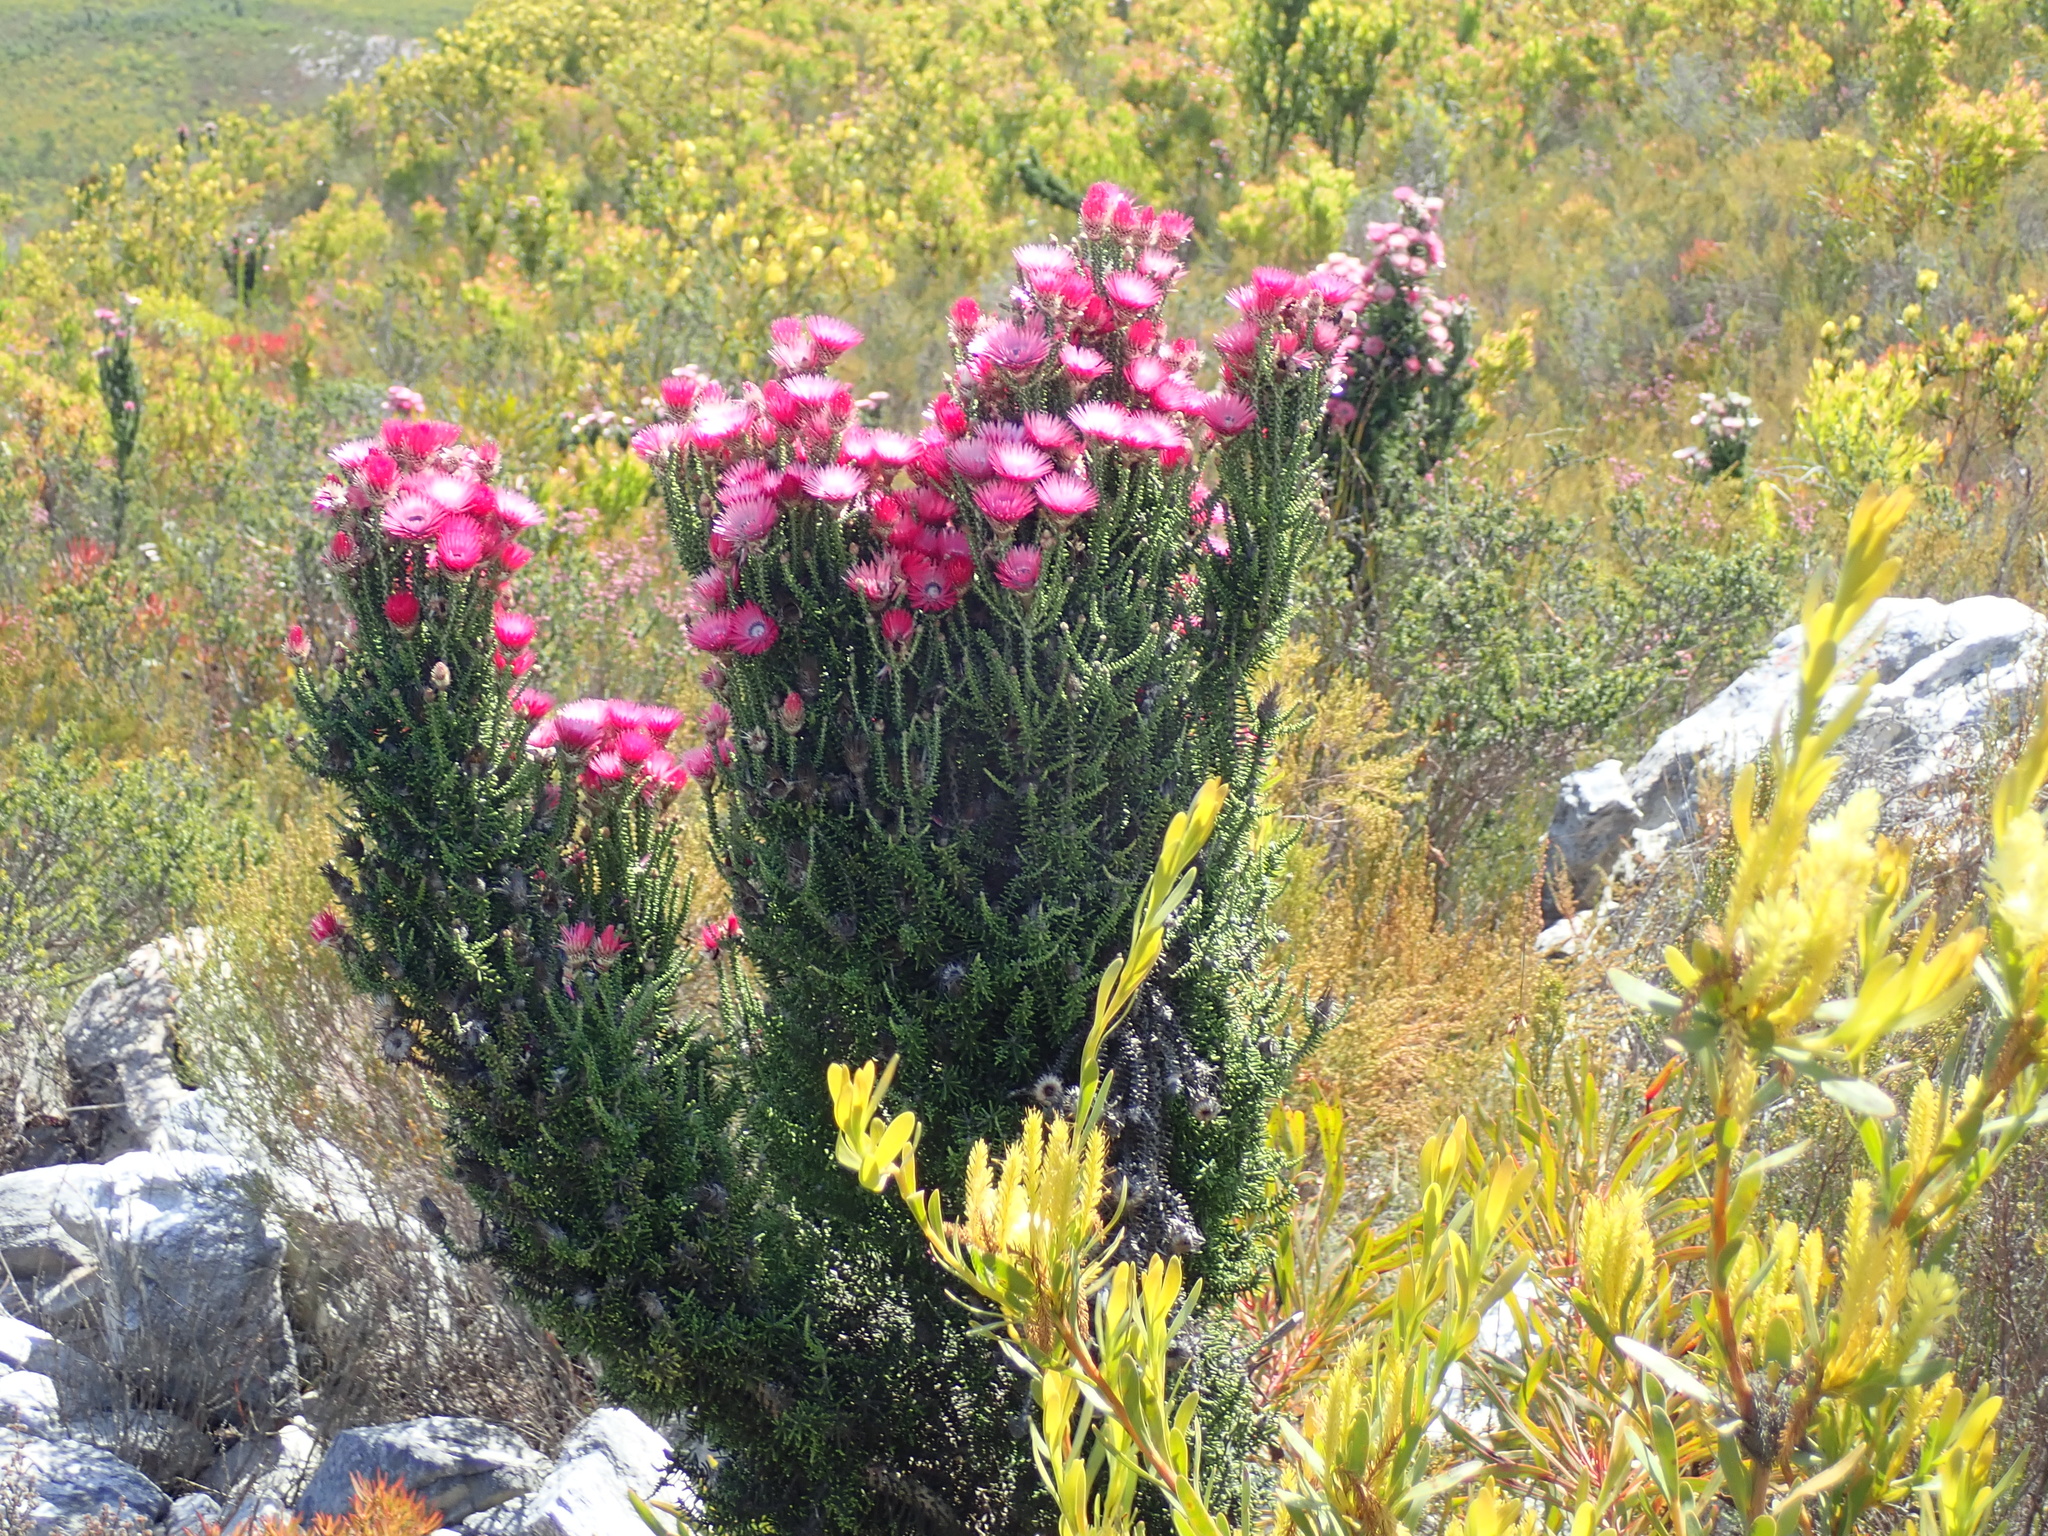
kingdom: Plantae
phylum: Tracheophyta
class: Magnoliopsida
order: Asterales
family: Asteraceae
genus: Phaenocoma
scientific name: Phaenocoma prolifera
